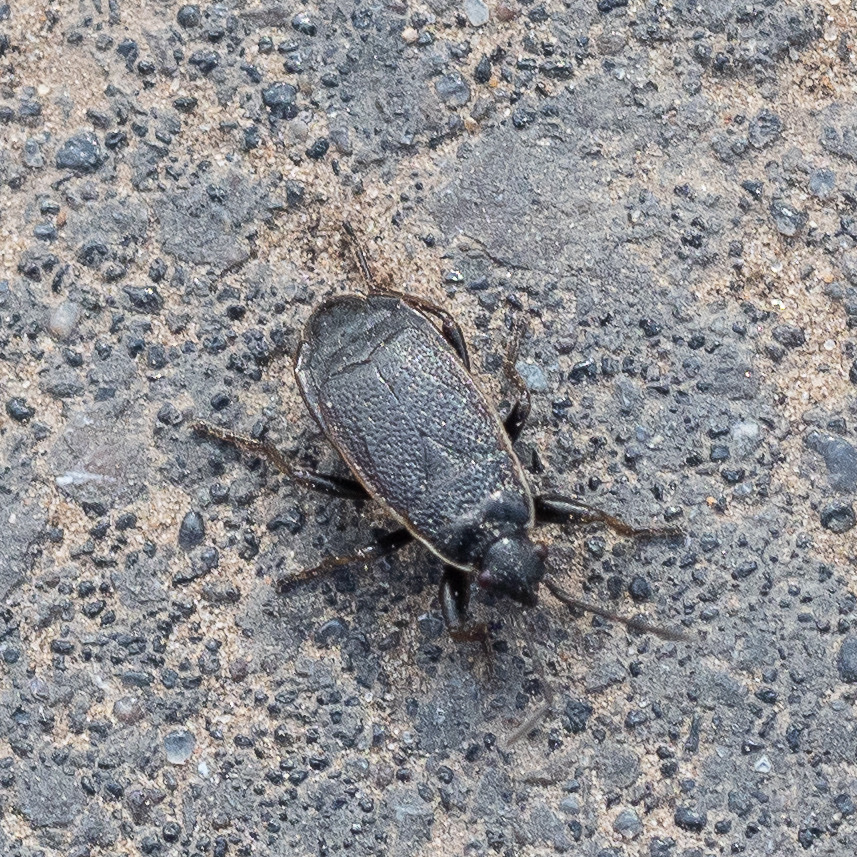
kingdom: Animalia
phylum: Arthropoda
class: Insecta
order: Hemiptera
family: Pyrrhocoridae
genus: Pyrrhocoris
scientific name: Pyrrhocoris marginatus
